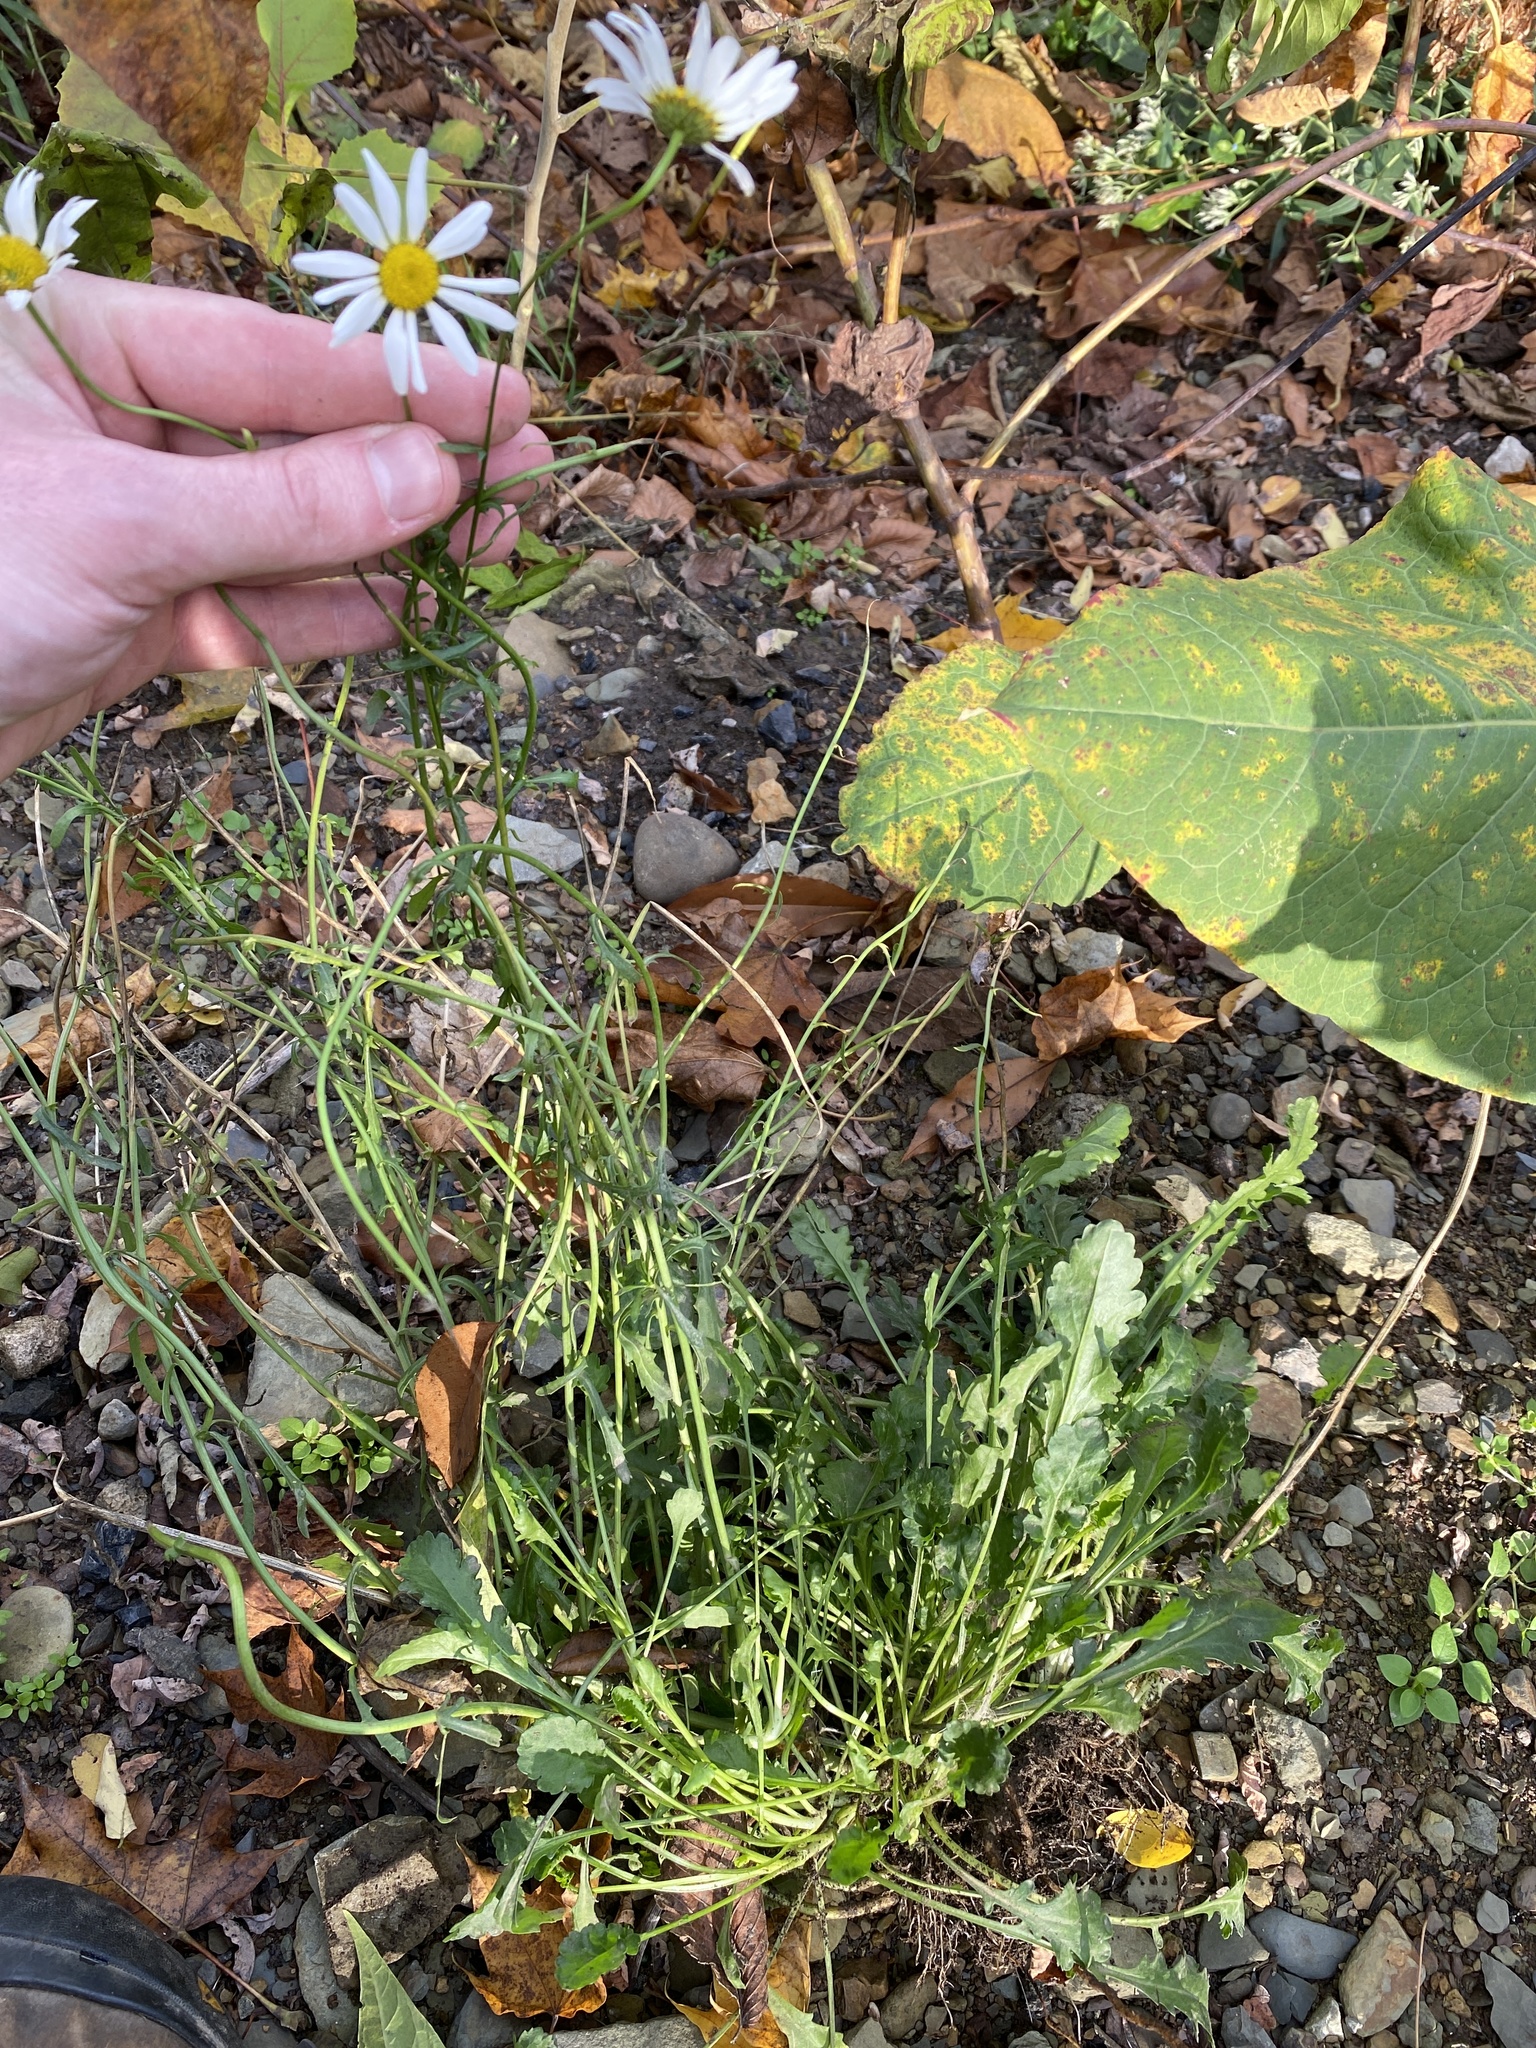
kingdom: Plantae
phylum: Tracheophyta
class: Magnoliopsida
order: Asterales
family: Asteraceae
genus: Leucanthemum
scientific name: Leucanthemum vulgare
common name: Oxeye daisy
